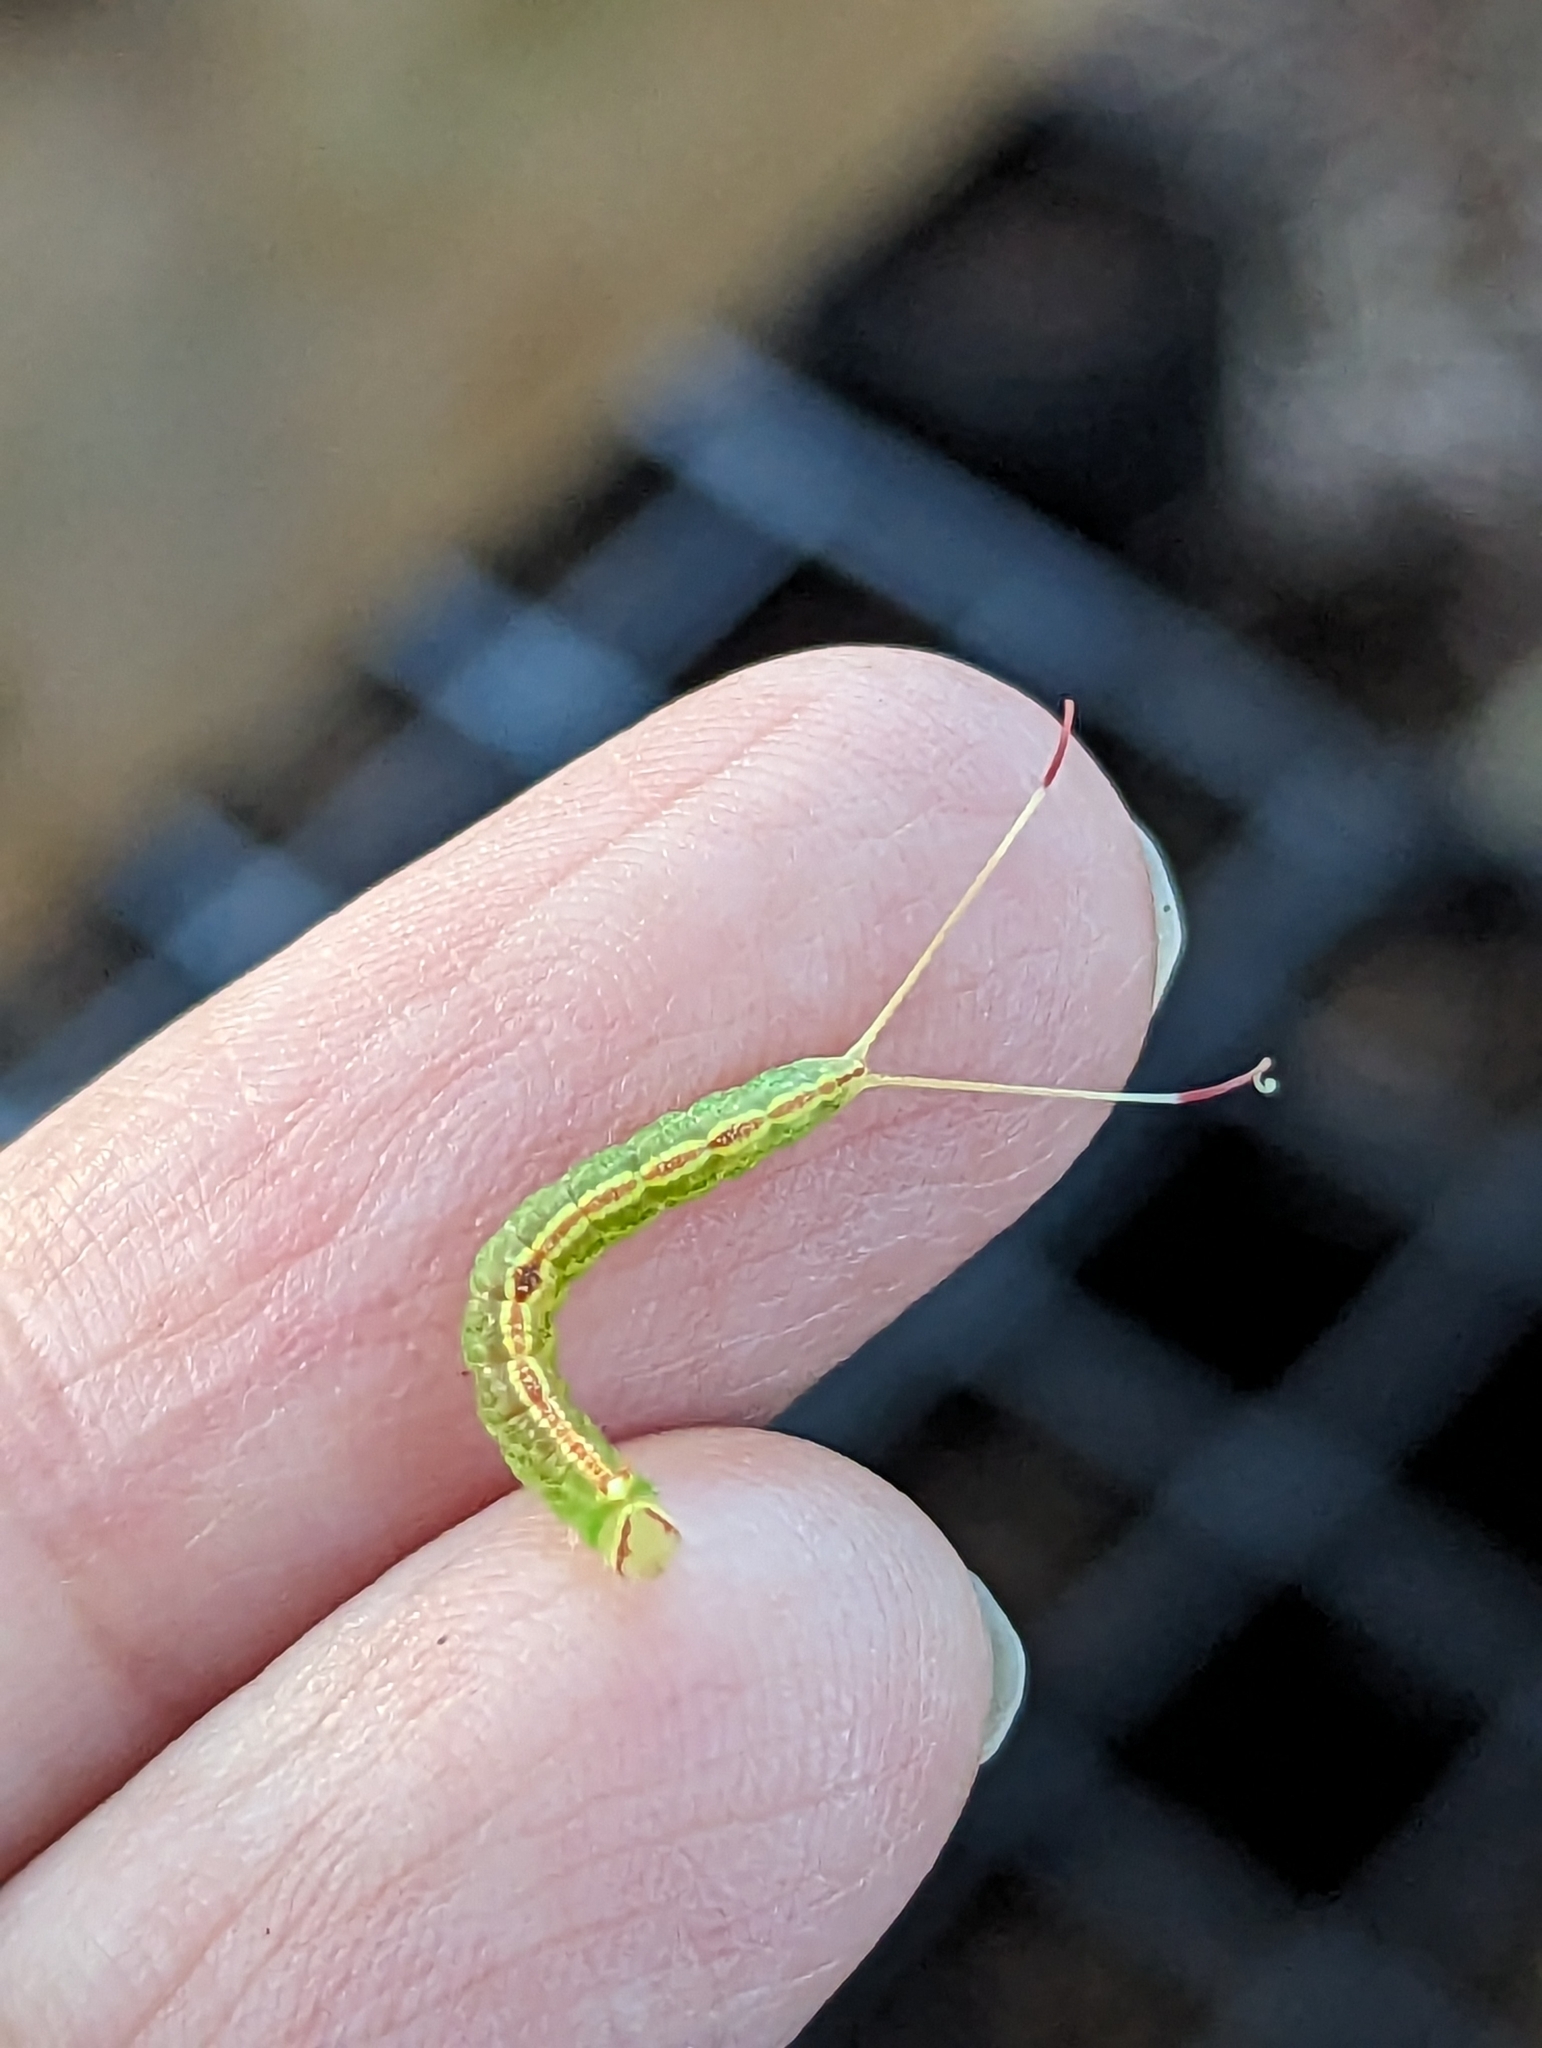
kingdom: Animalia
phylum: Arthropoda
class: Insecta
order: Lepidoptera
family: Notodontidae
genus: Macrurocampa
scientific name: Macrurocampa marthesia
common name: Mottled prominent
